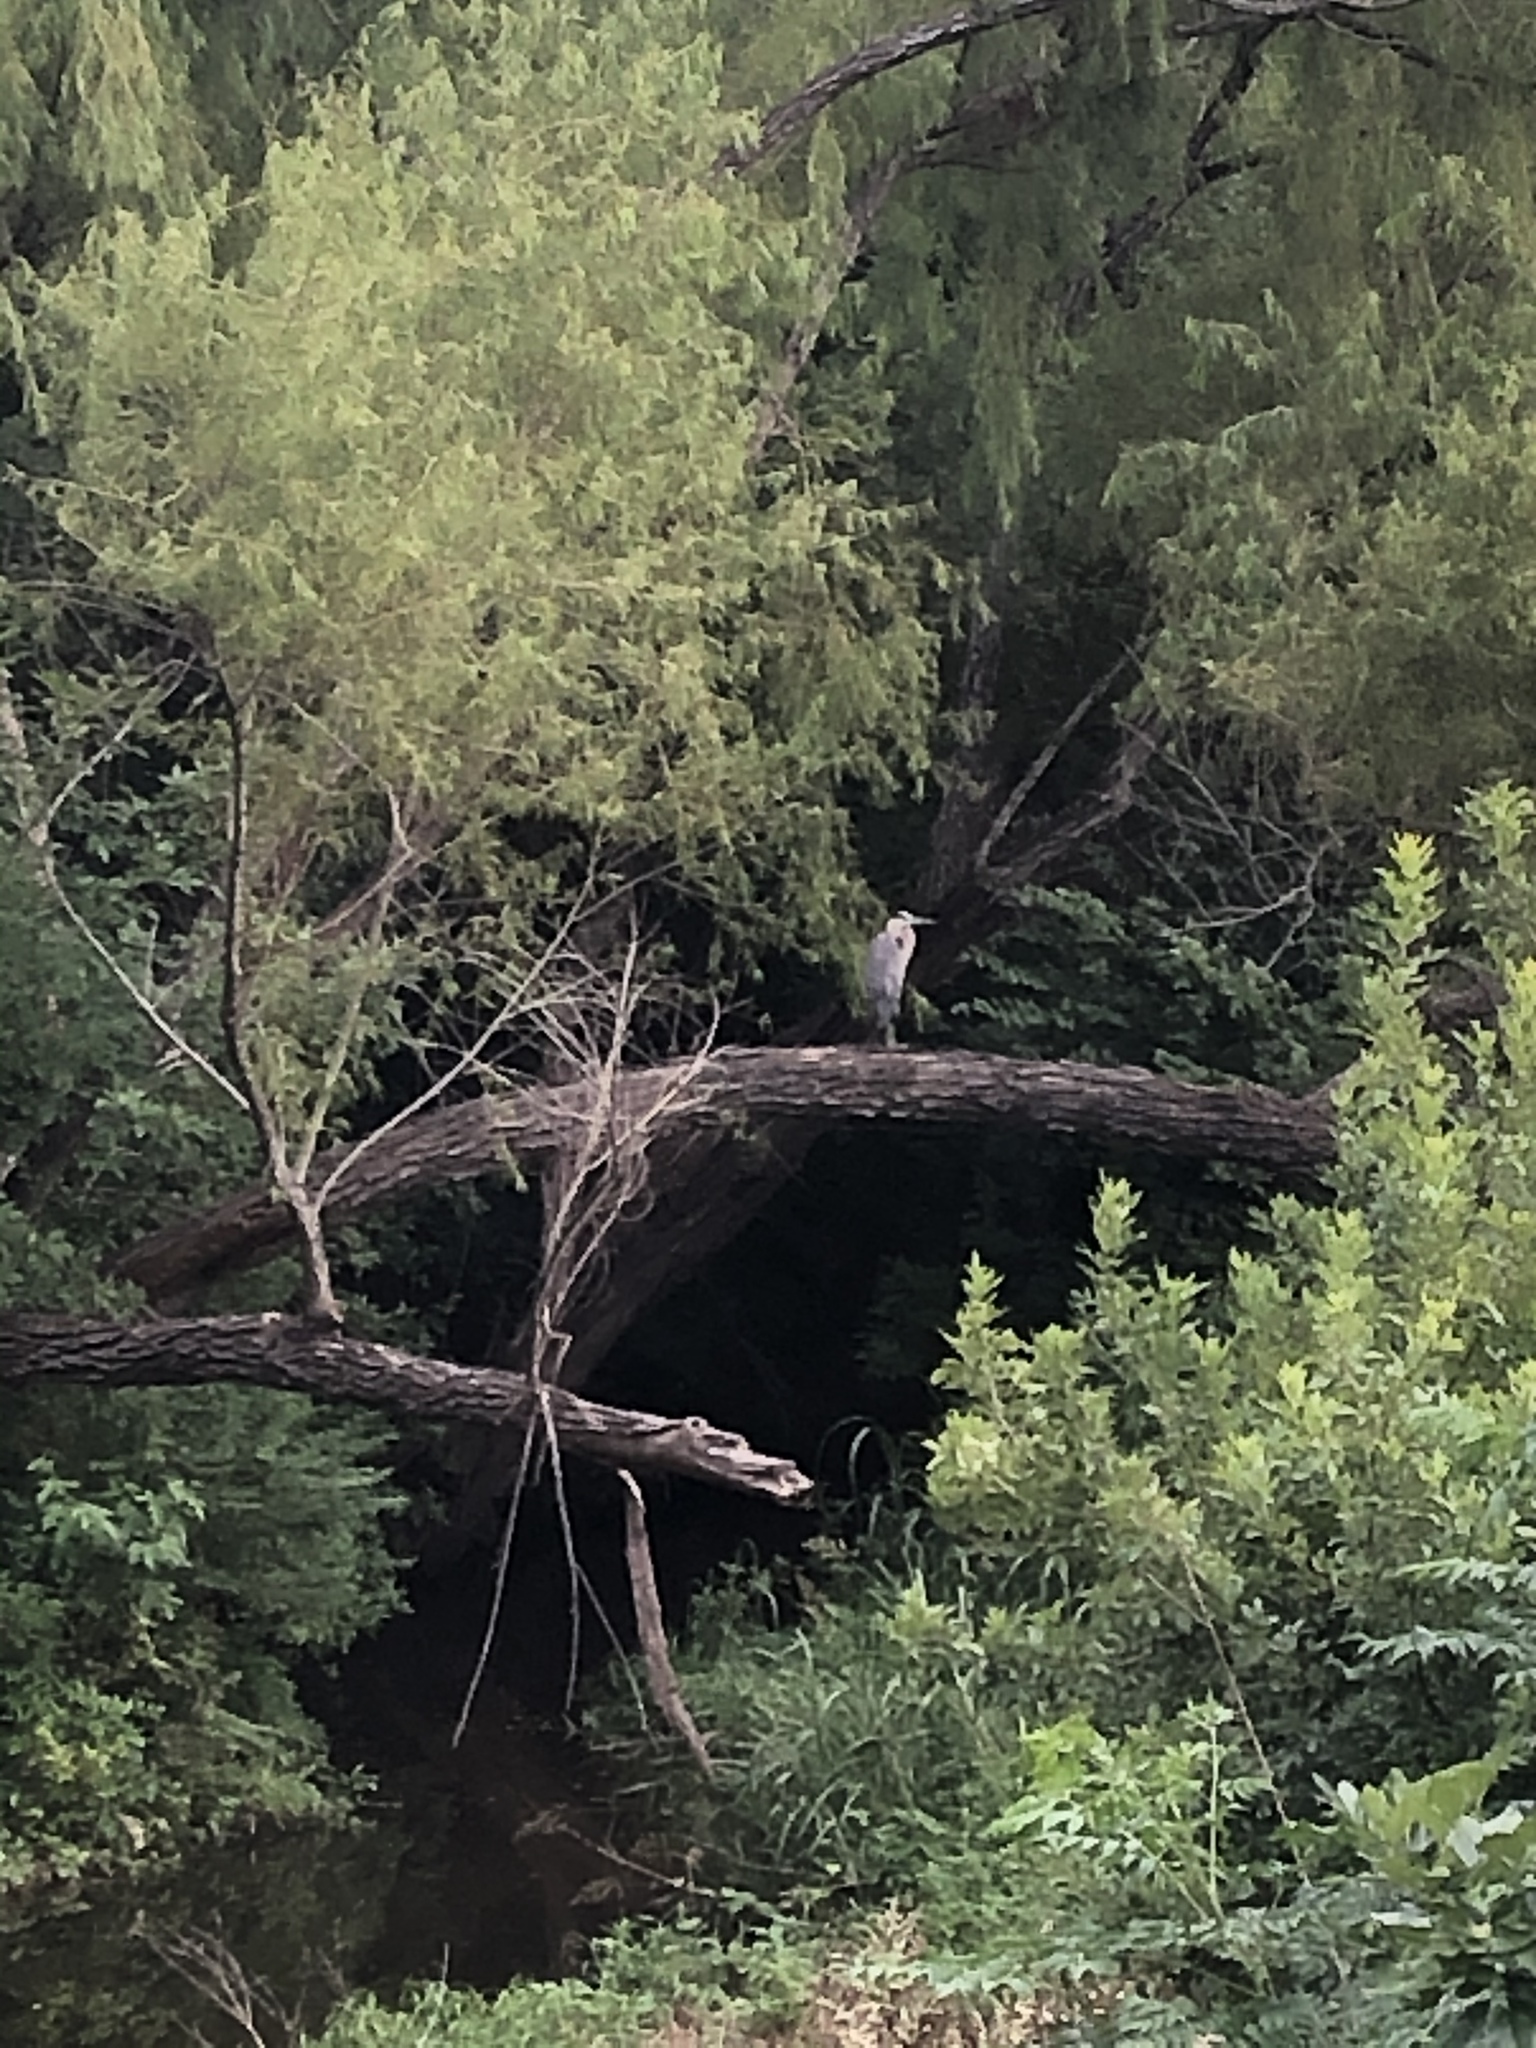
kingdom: Animalia
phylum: Chordata
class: Aves
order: Pelecaniformes
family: Ardeidae
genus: Ardea
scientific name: Ardea herodias
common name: Great blue heron
